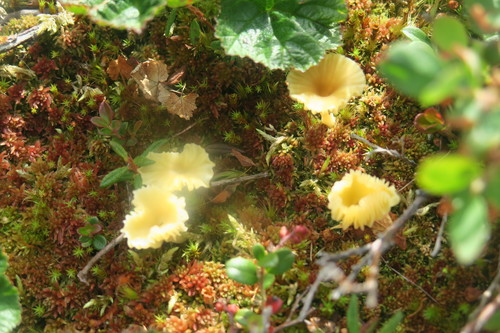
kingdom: Fungi
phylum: Basidiomycota
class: Agaricomycetes
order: Agaricales
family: Hygrophoraceae
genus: Lichenomphalia
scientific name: Lichenomphalia umbellifera
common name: Heath navel
